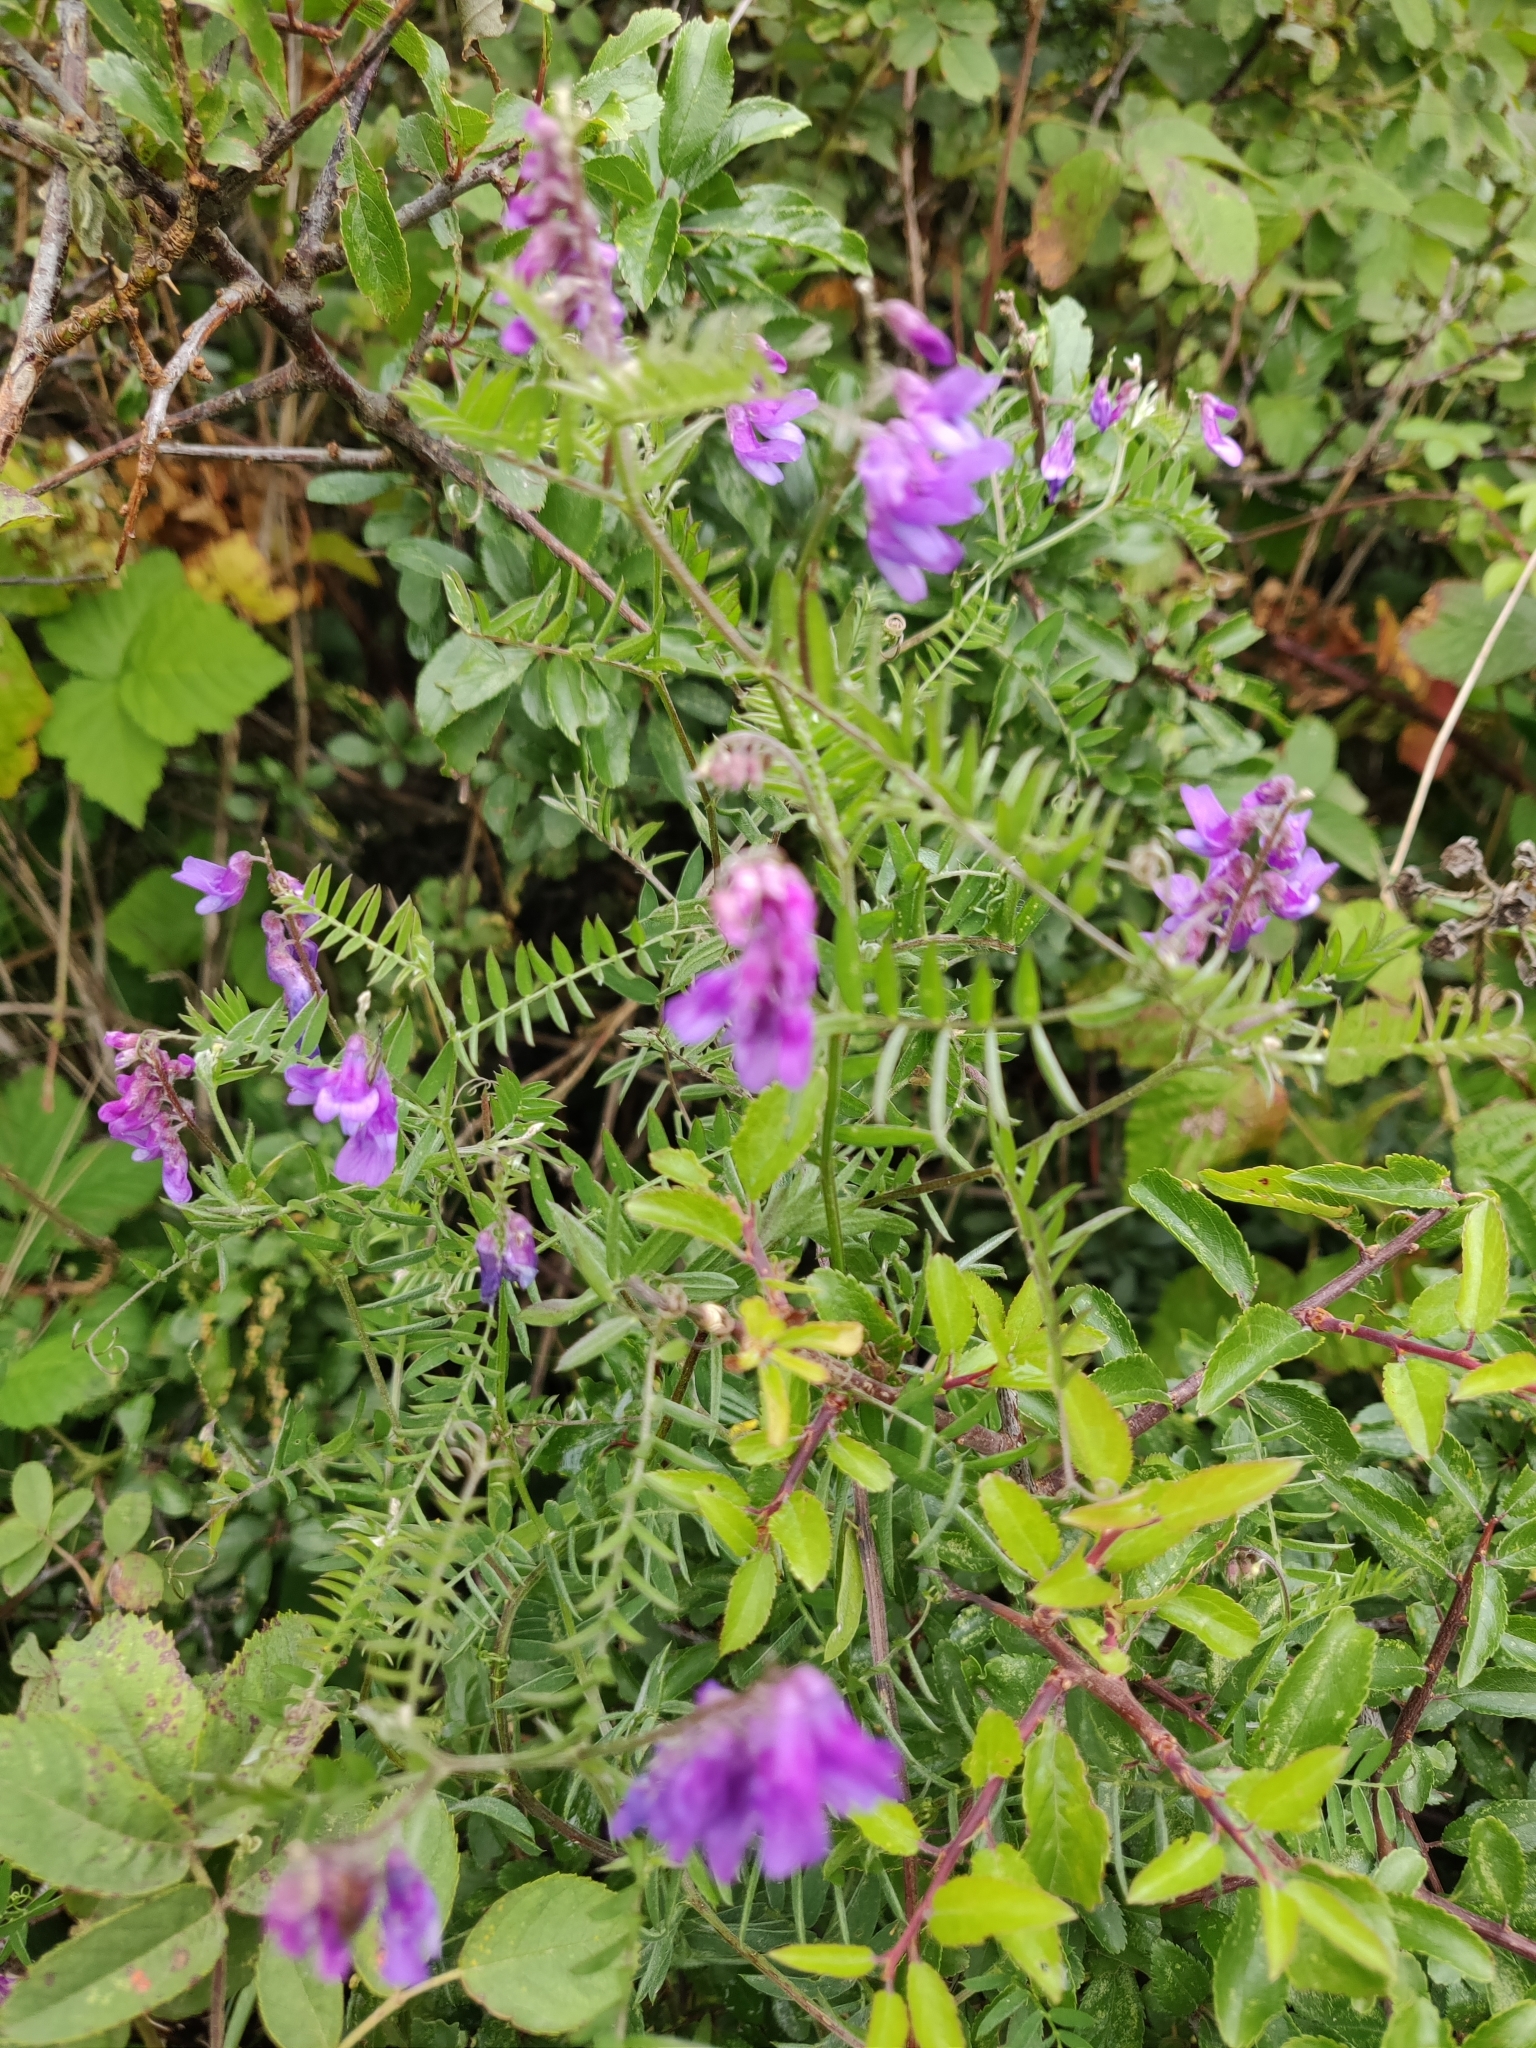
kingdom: Plantae
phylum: Tracheophyta
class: Magnoliopsida
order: Fabales
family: Fabaceae
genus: Vicia
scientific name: Vicia cracca
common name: Bird vetch
